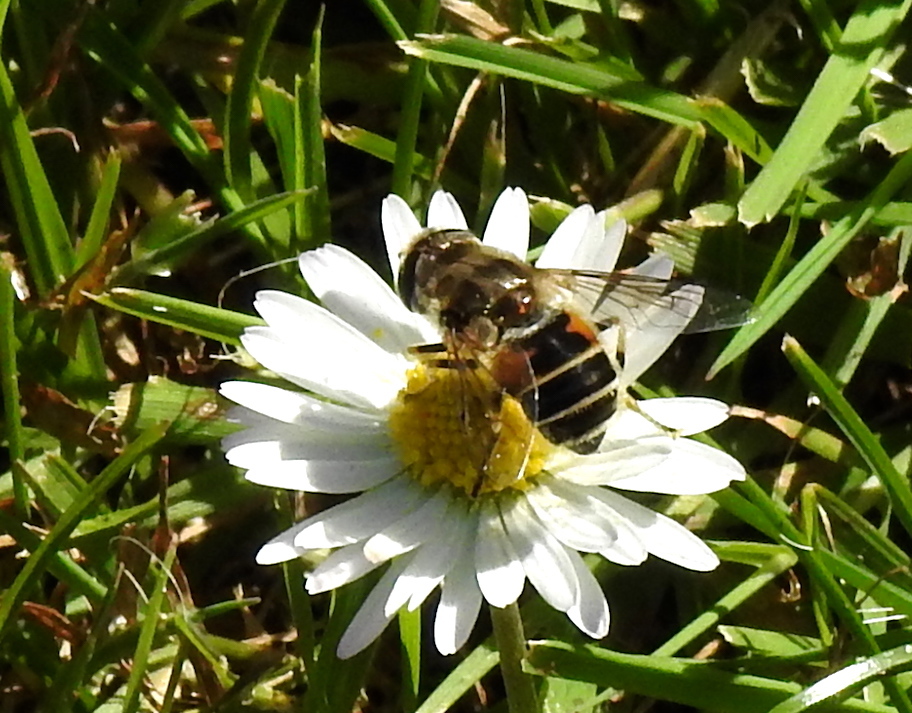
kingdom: Animalia
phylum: Arthropoda
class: Insecta
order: Diptera
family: Syrphidae
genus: Eristalis
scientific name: Eristalis arbustorum
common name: Hover fly
